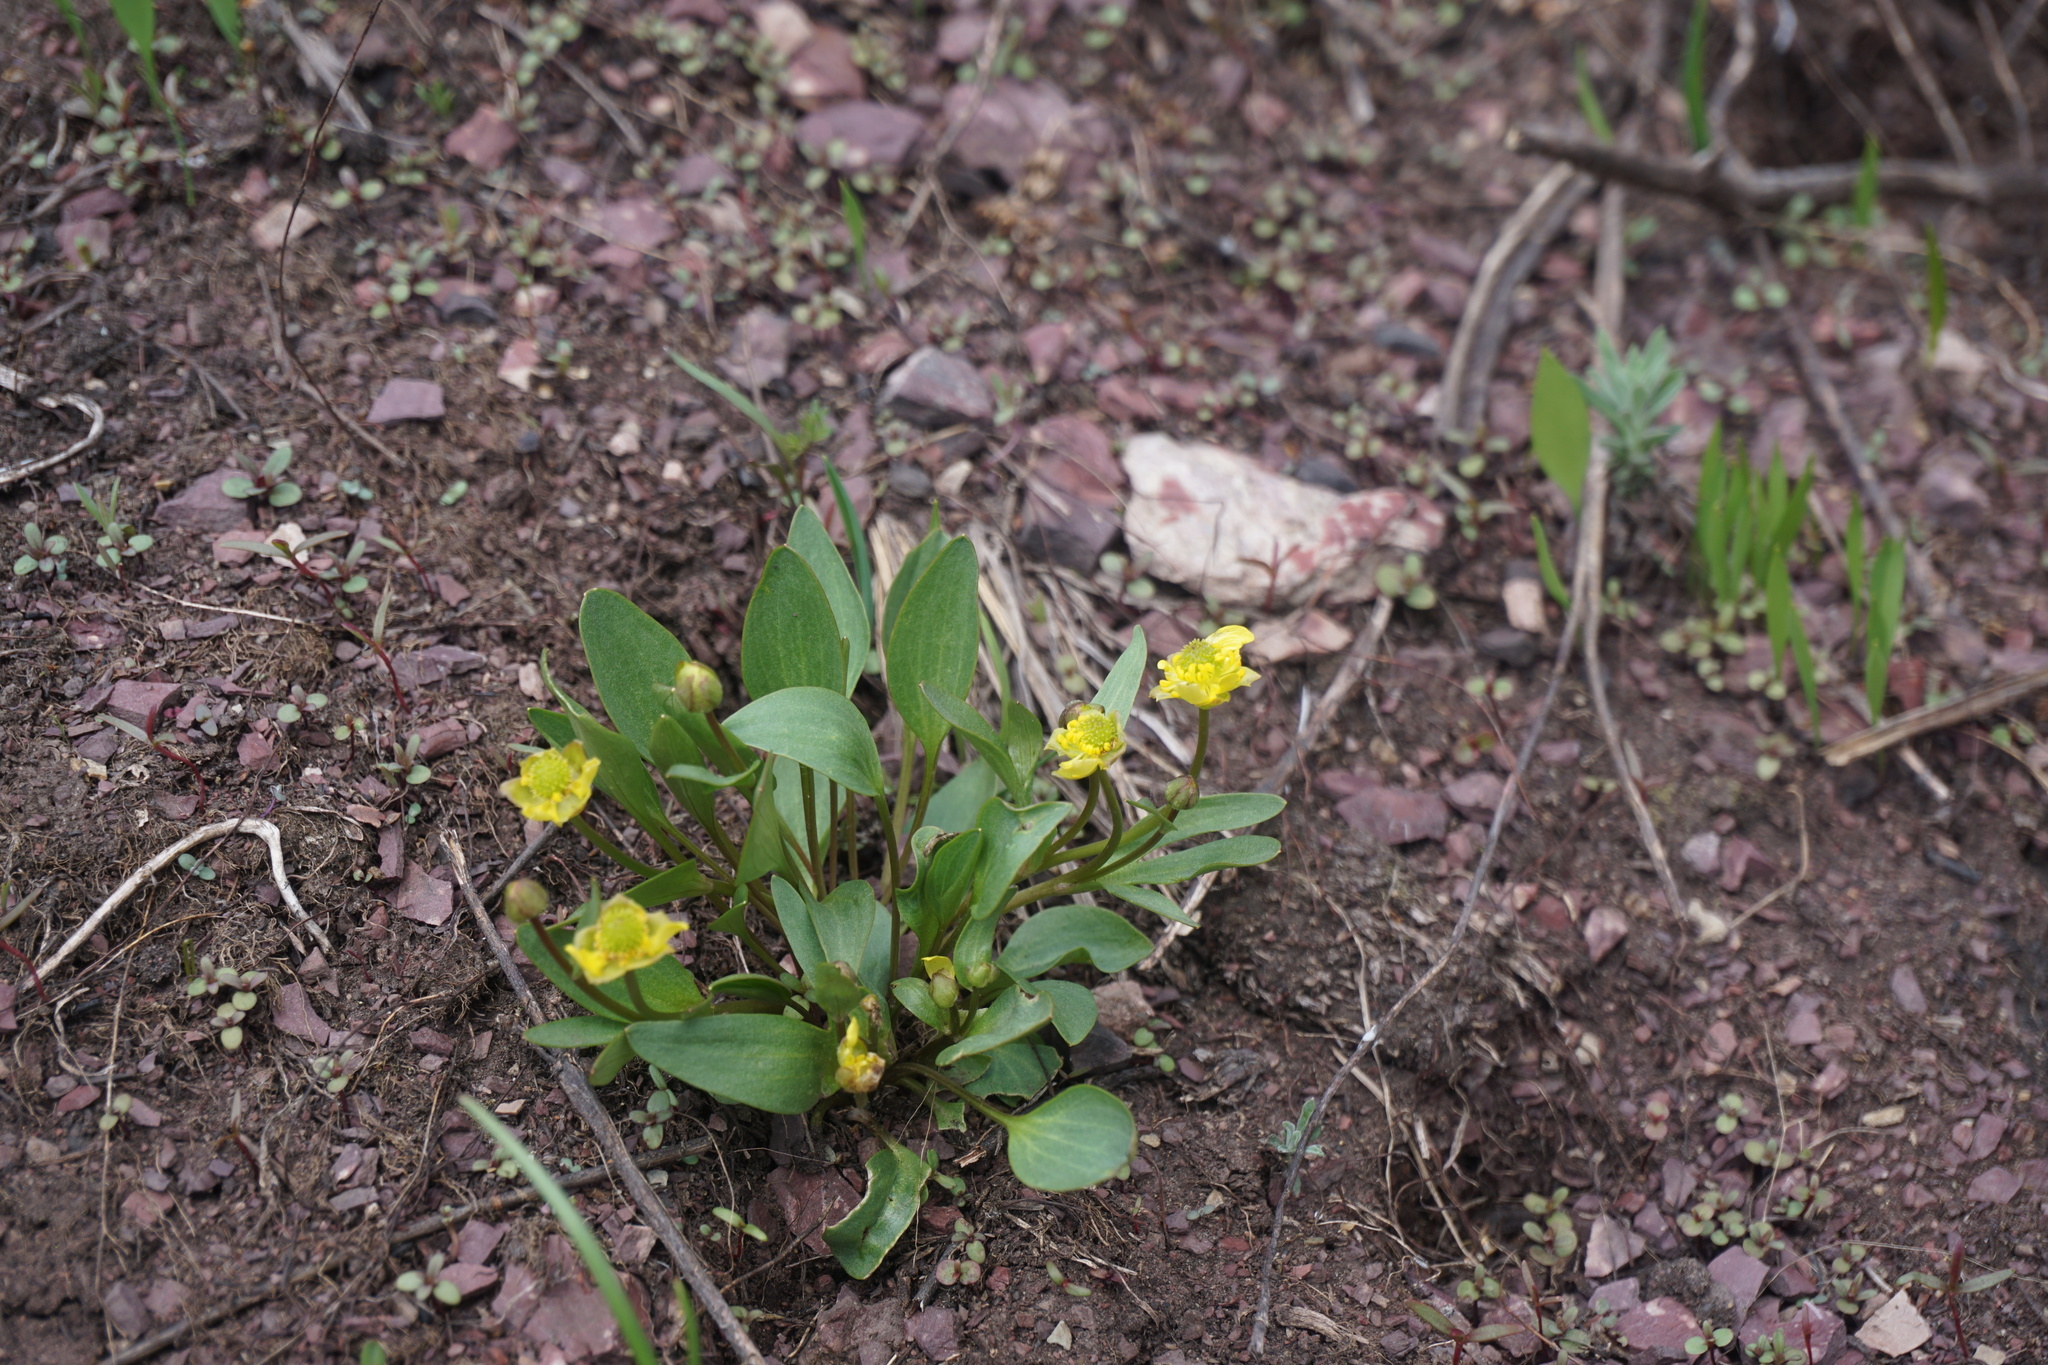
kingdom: Plantae
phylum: Tracheophyta
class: Magnoliopsida
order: Ranunculales
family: Ranunculaceae
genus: Ranunculus
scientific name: Ranunculus glaberrimus
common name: Sagebrush buttercup
